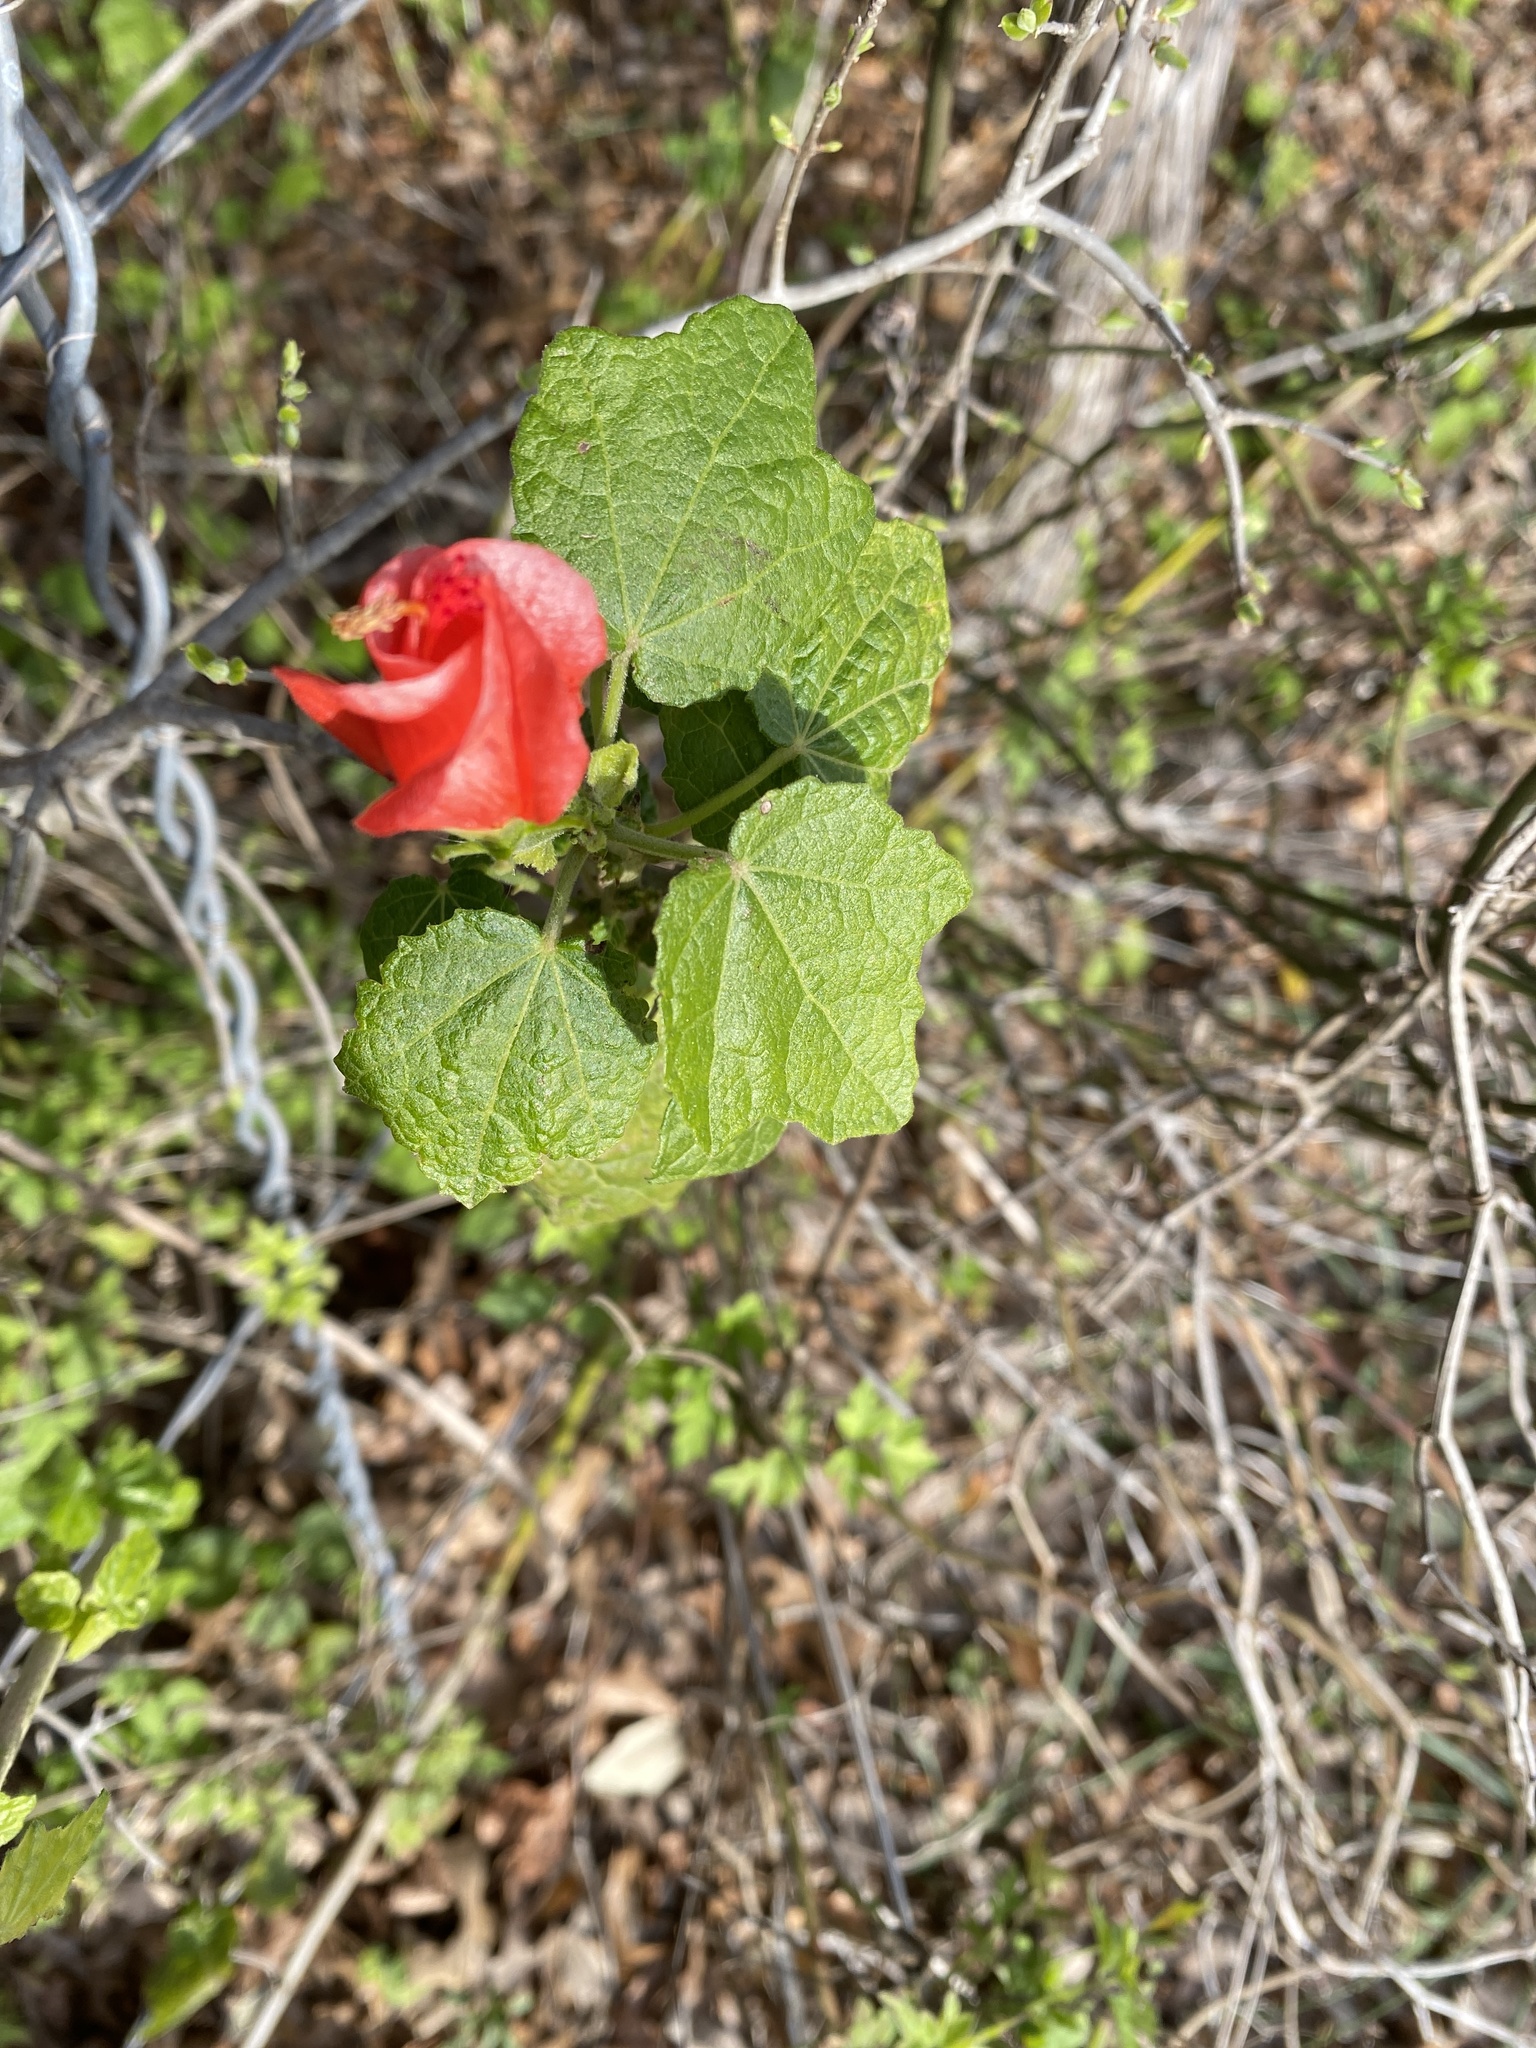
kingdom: Plantae
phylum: Tracheophyta
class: Magnoliopsida
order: Malvales
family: Malvaceae
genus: Malvaviscus
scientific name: Malvaviscus arboreus
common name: Wax mallow
